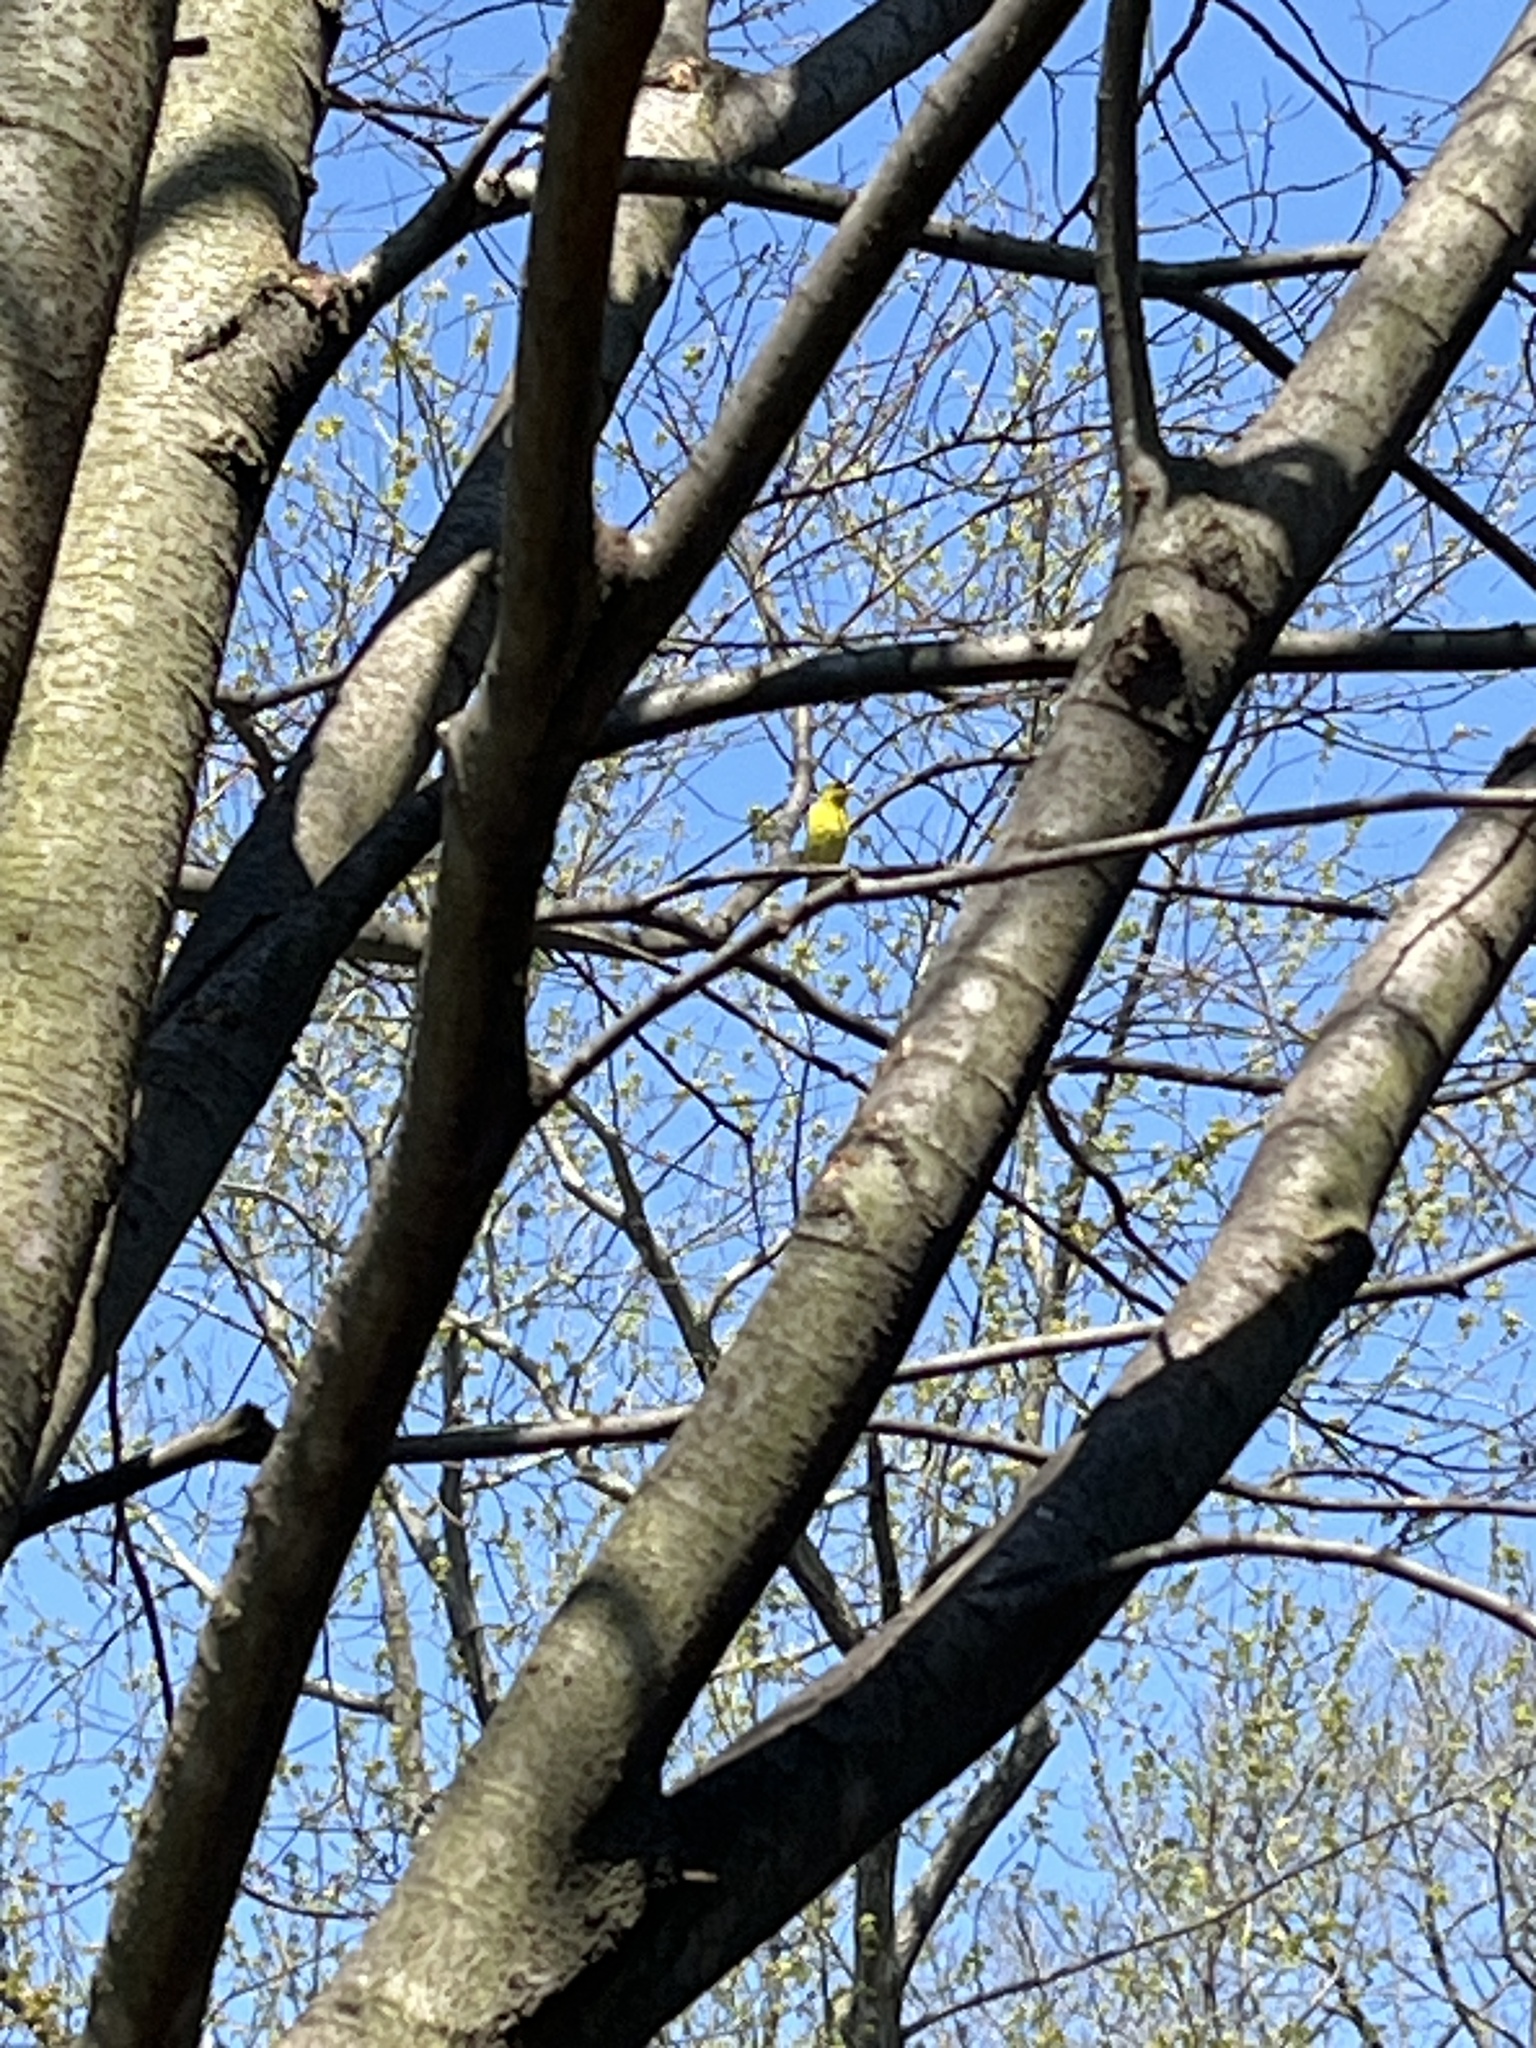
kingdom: Animalia
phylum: Chordata
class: Aves
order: Passeriformes
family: Fringillidae
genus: Spinus
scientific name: Spinus tristis
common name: American goldfinch
